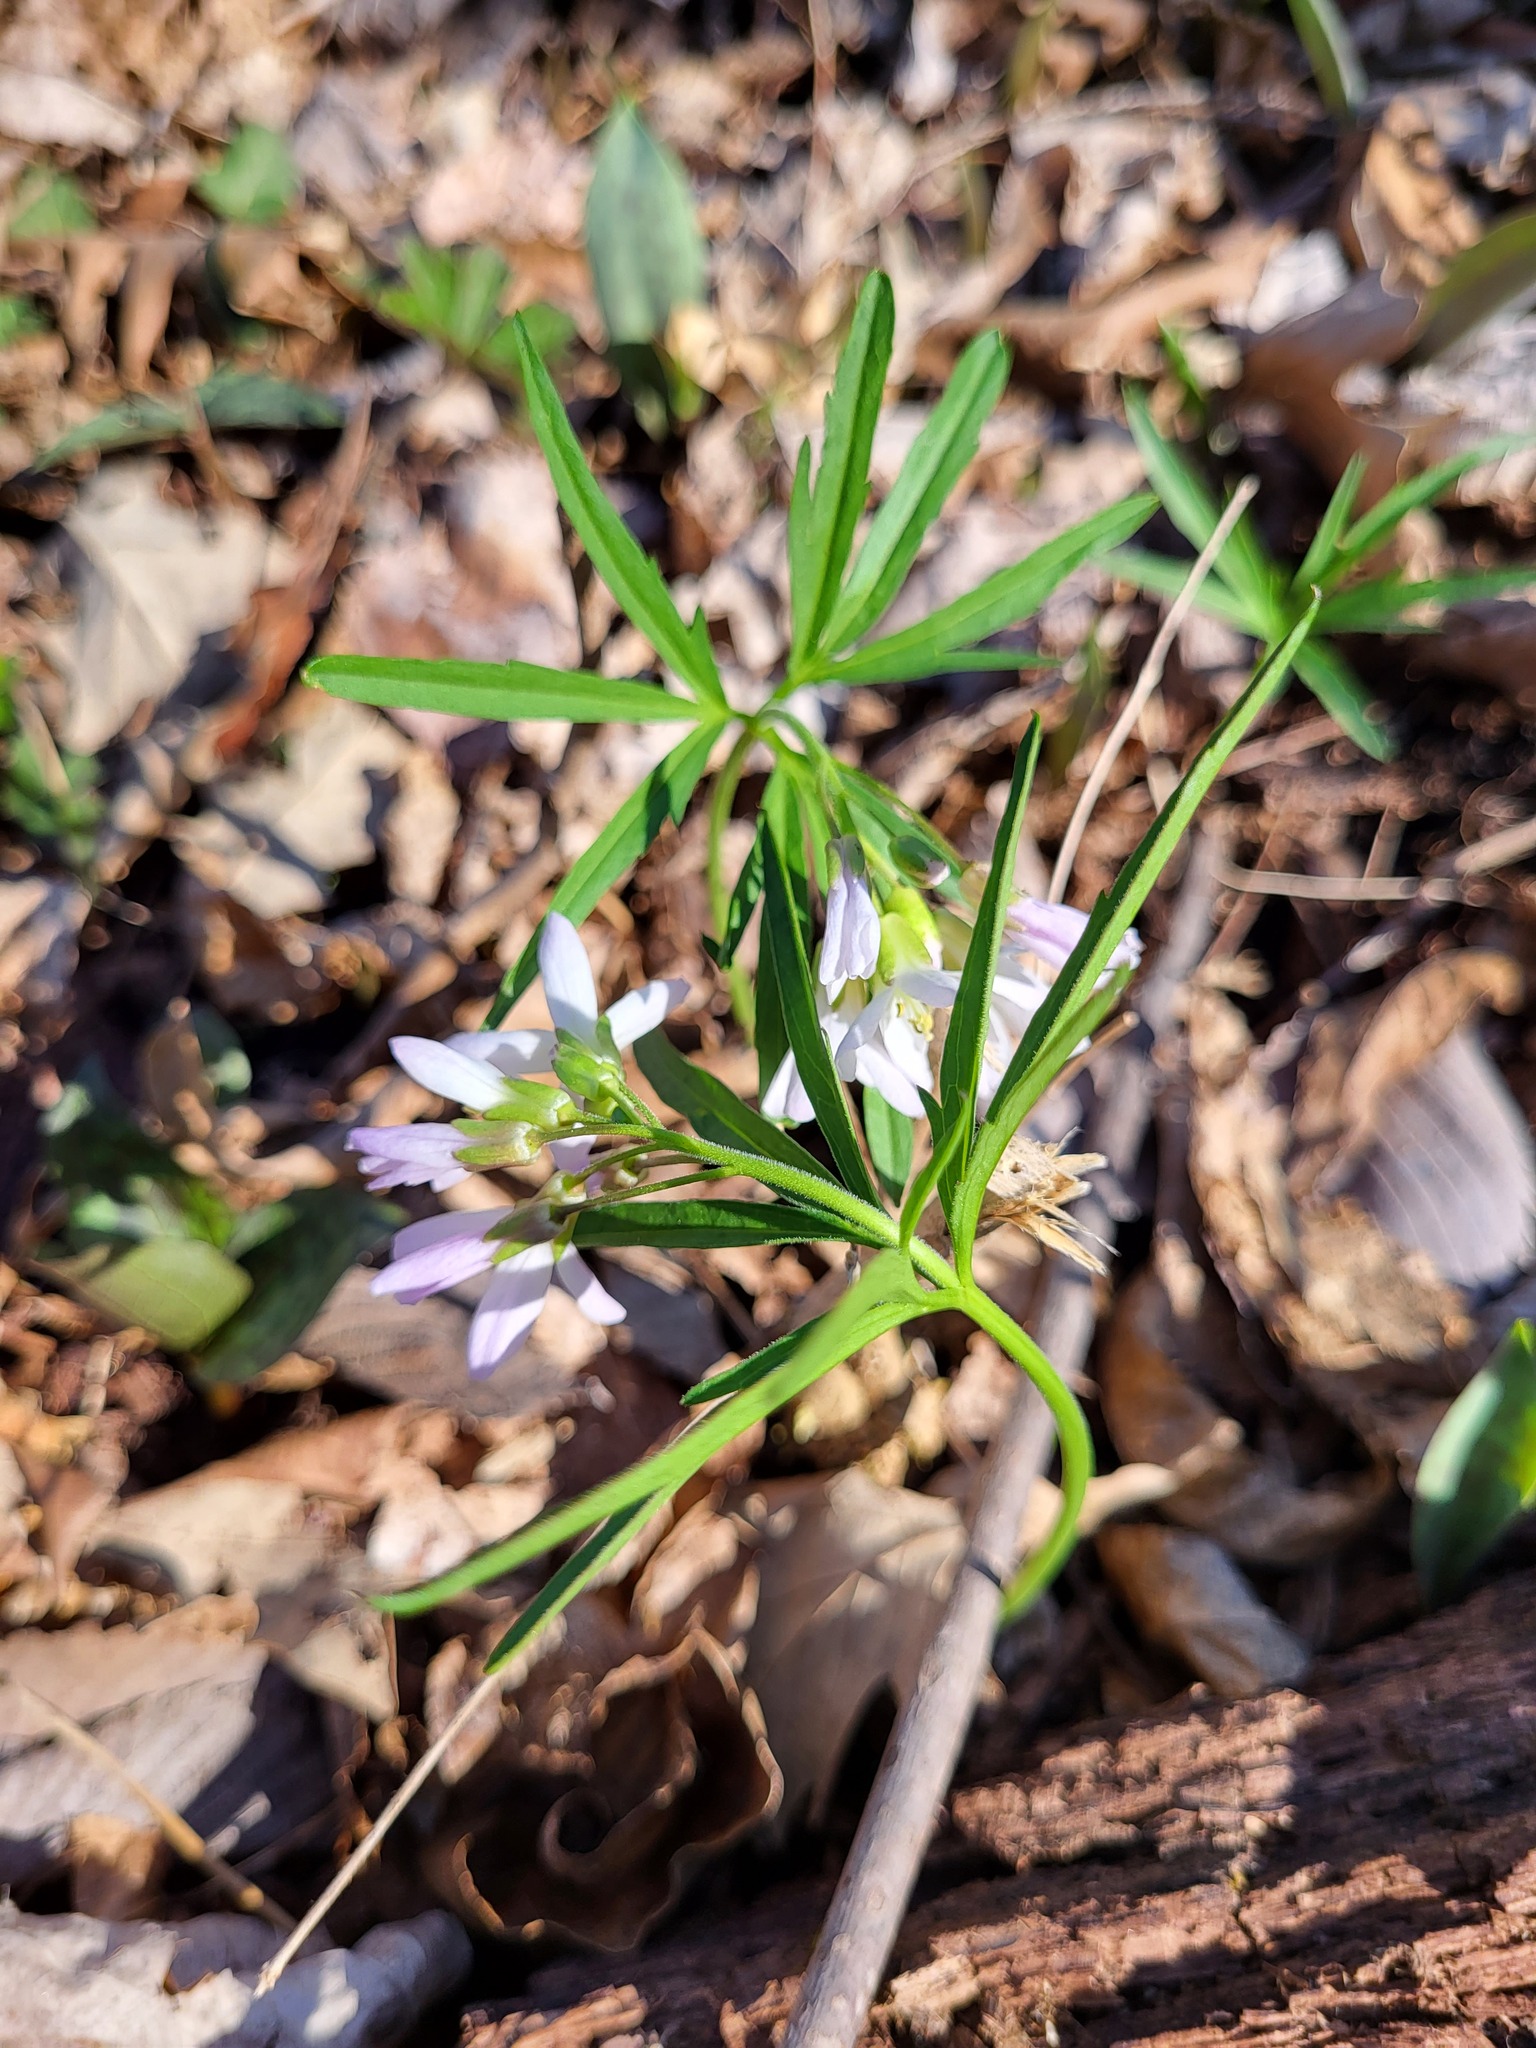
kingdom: Plantae
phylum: Tracheophyta
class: Magnoliopsida
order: Brassicales
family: Brassicaceae
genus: Cardamine
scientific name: Cardamine concatenata
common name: Cut-leaf toothcup
